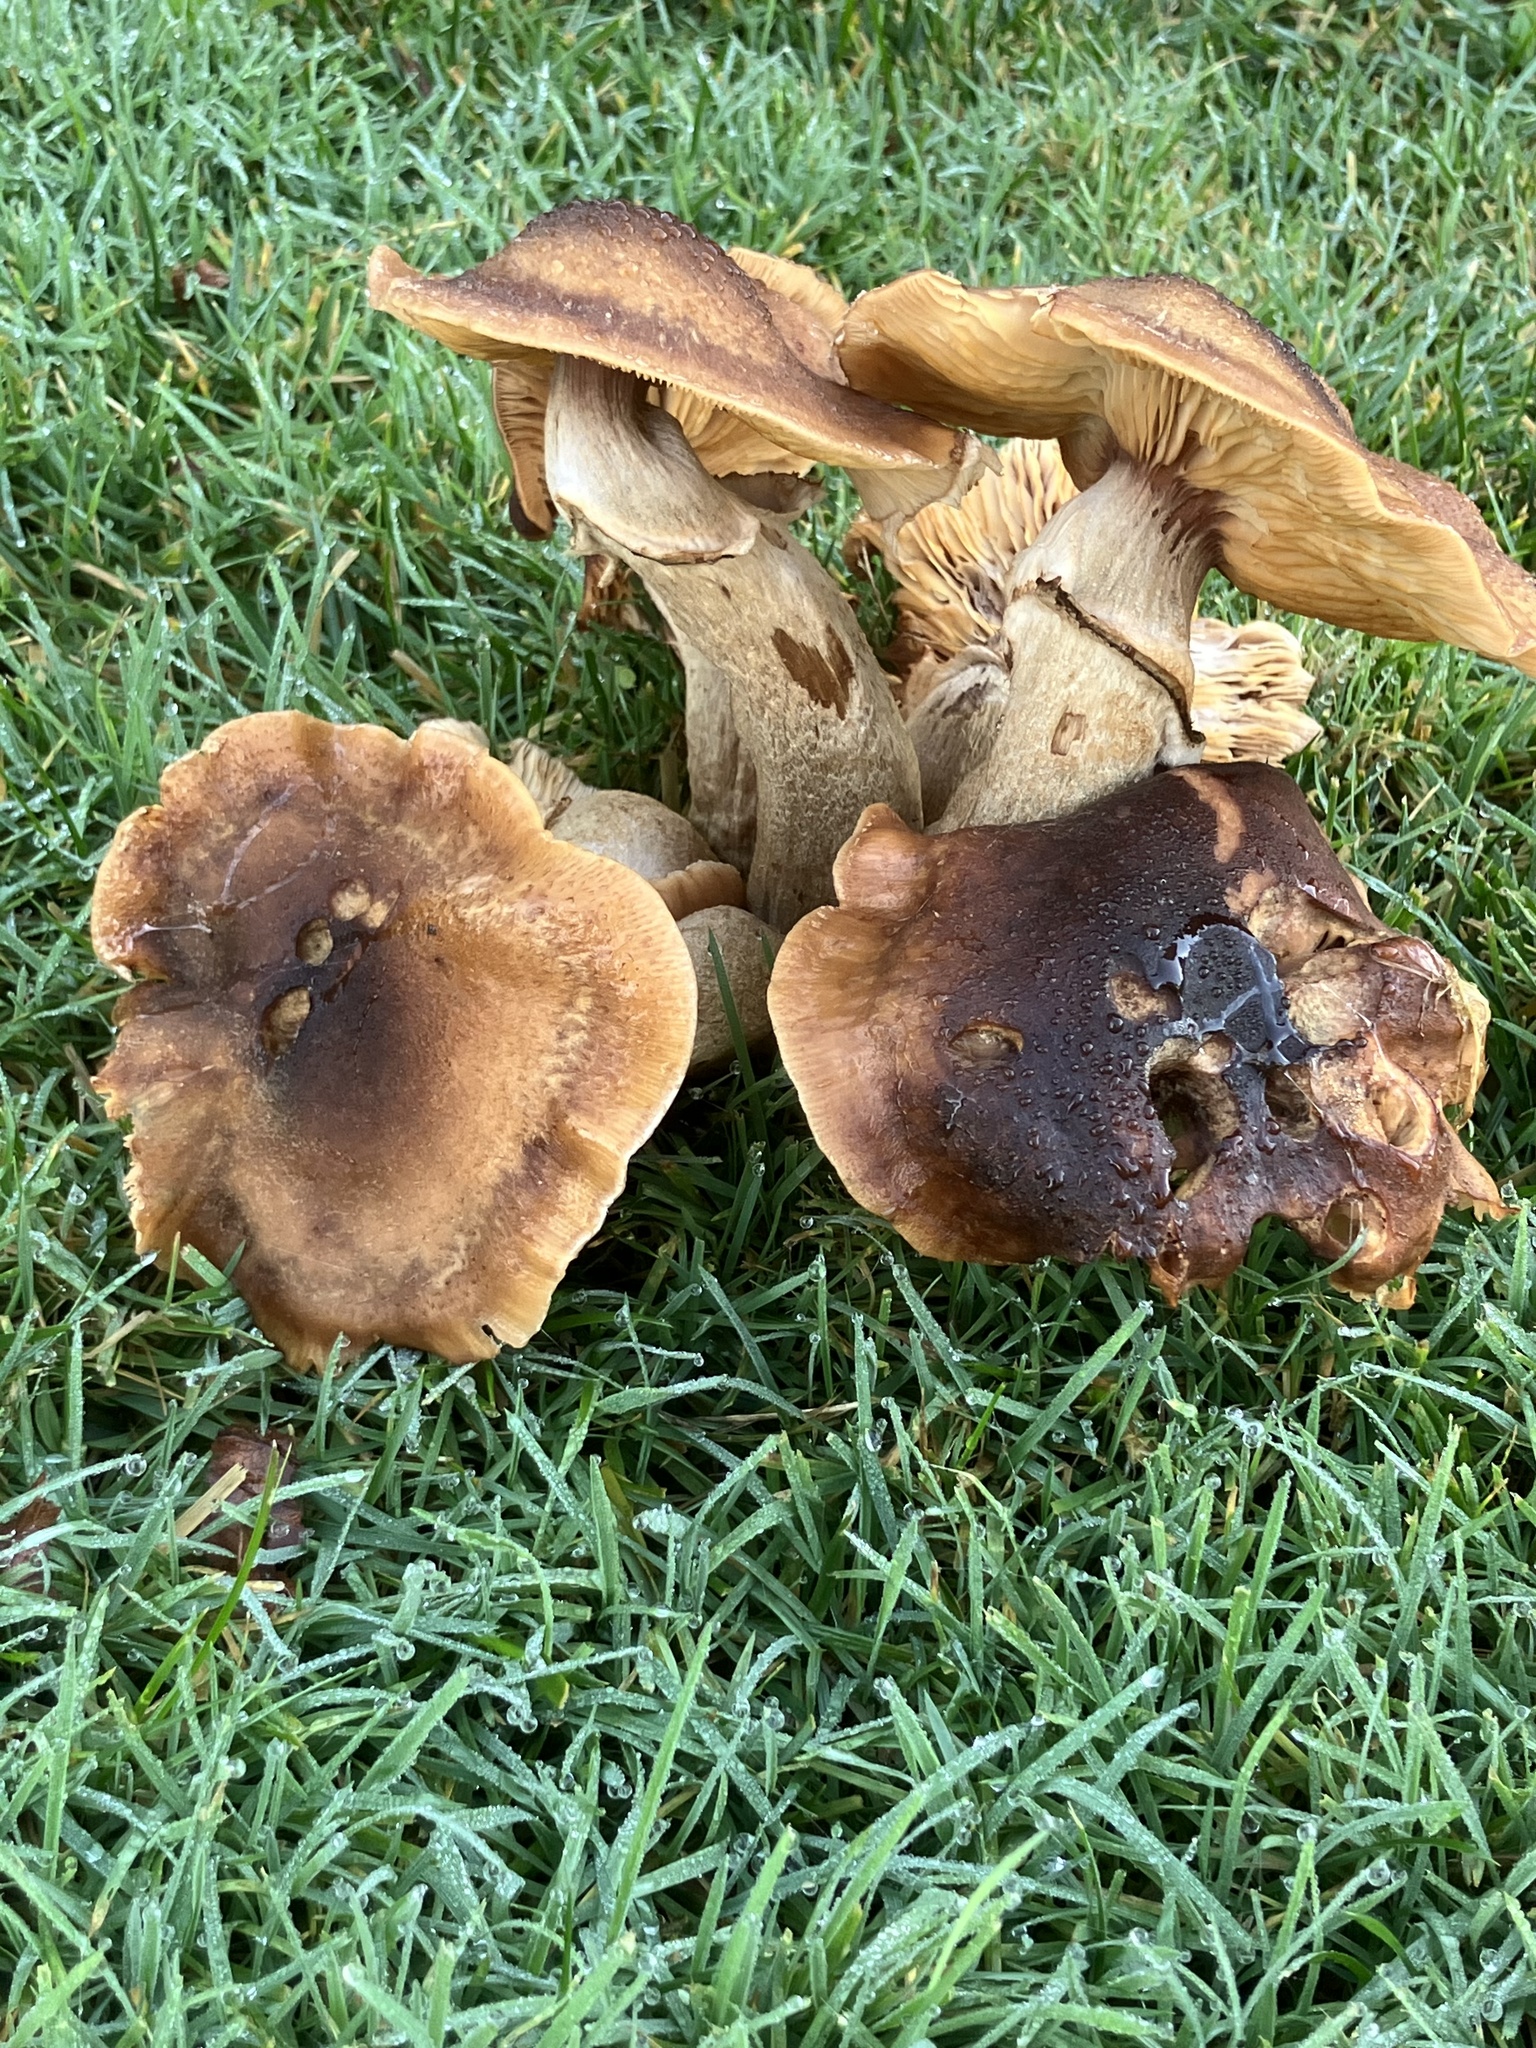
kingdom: Fungi
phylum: Basidiomycota
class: Agaricomycetes
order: Agaricales
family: Physalacriaceae
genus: Armillaria
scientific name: Armillaria mellea
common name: Honey fungus
